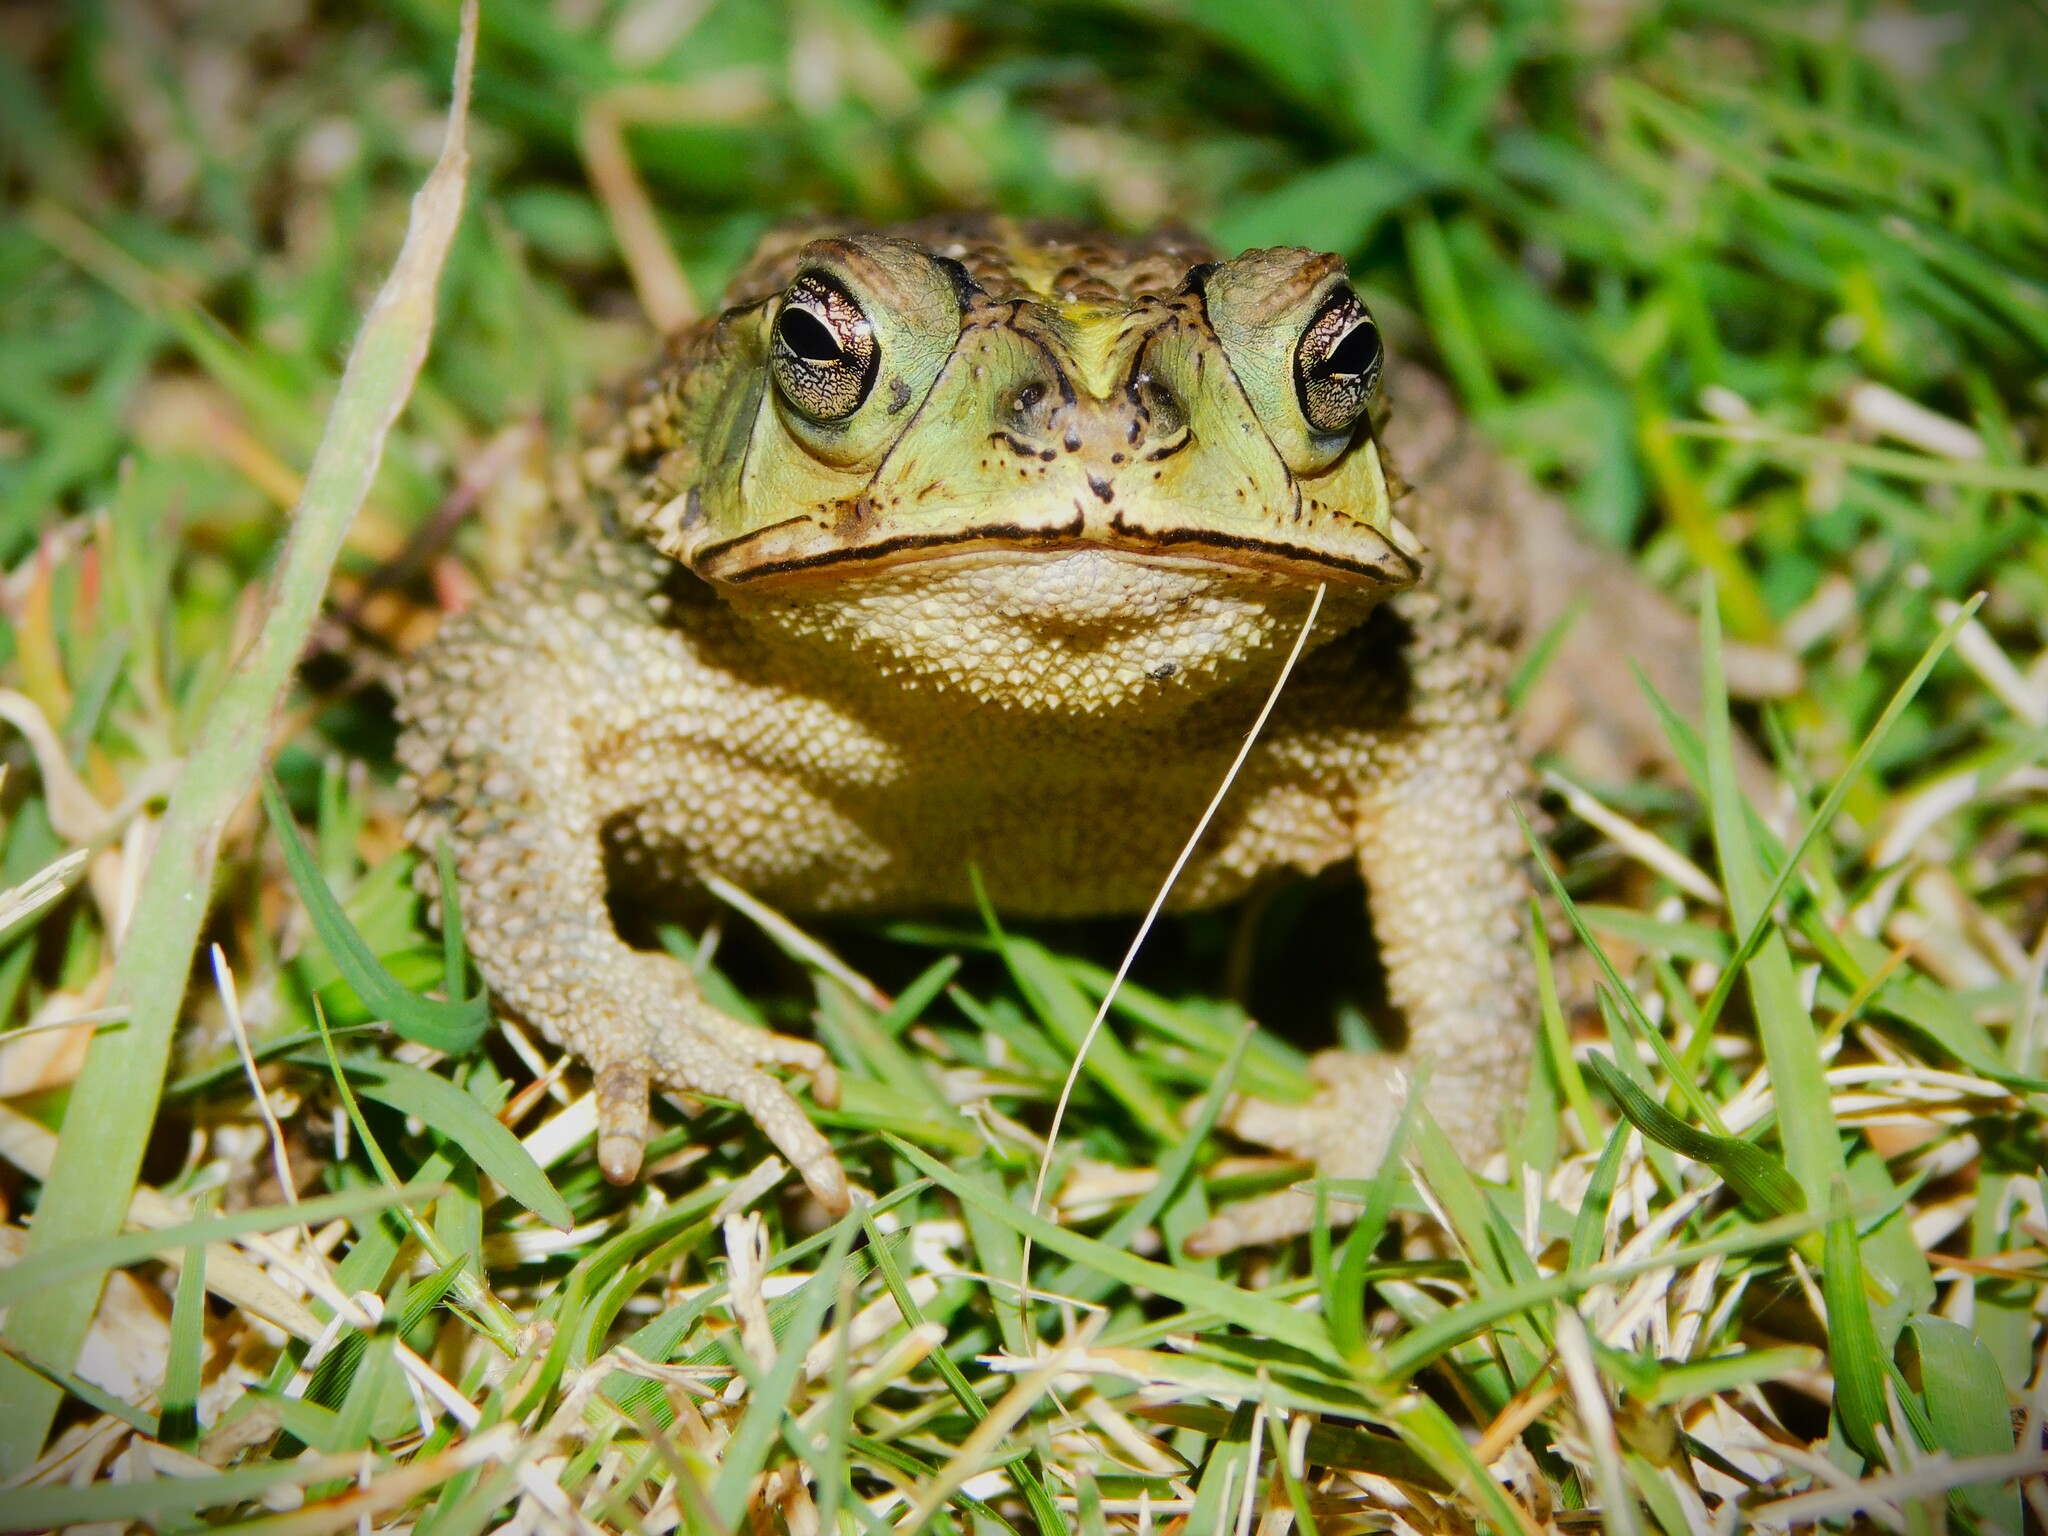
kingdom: Animalia
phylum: Chordata
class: Amphibia
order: Anura
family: Bufonidae
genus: Rhinella
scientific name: Rhinella dorbignyi
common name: D´orbigny’s toad
